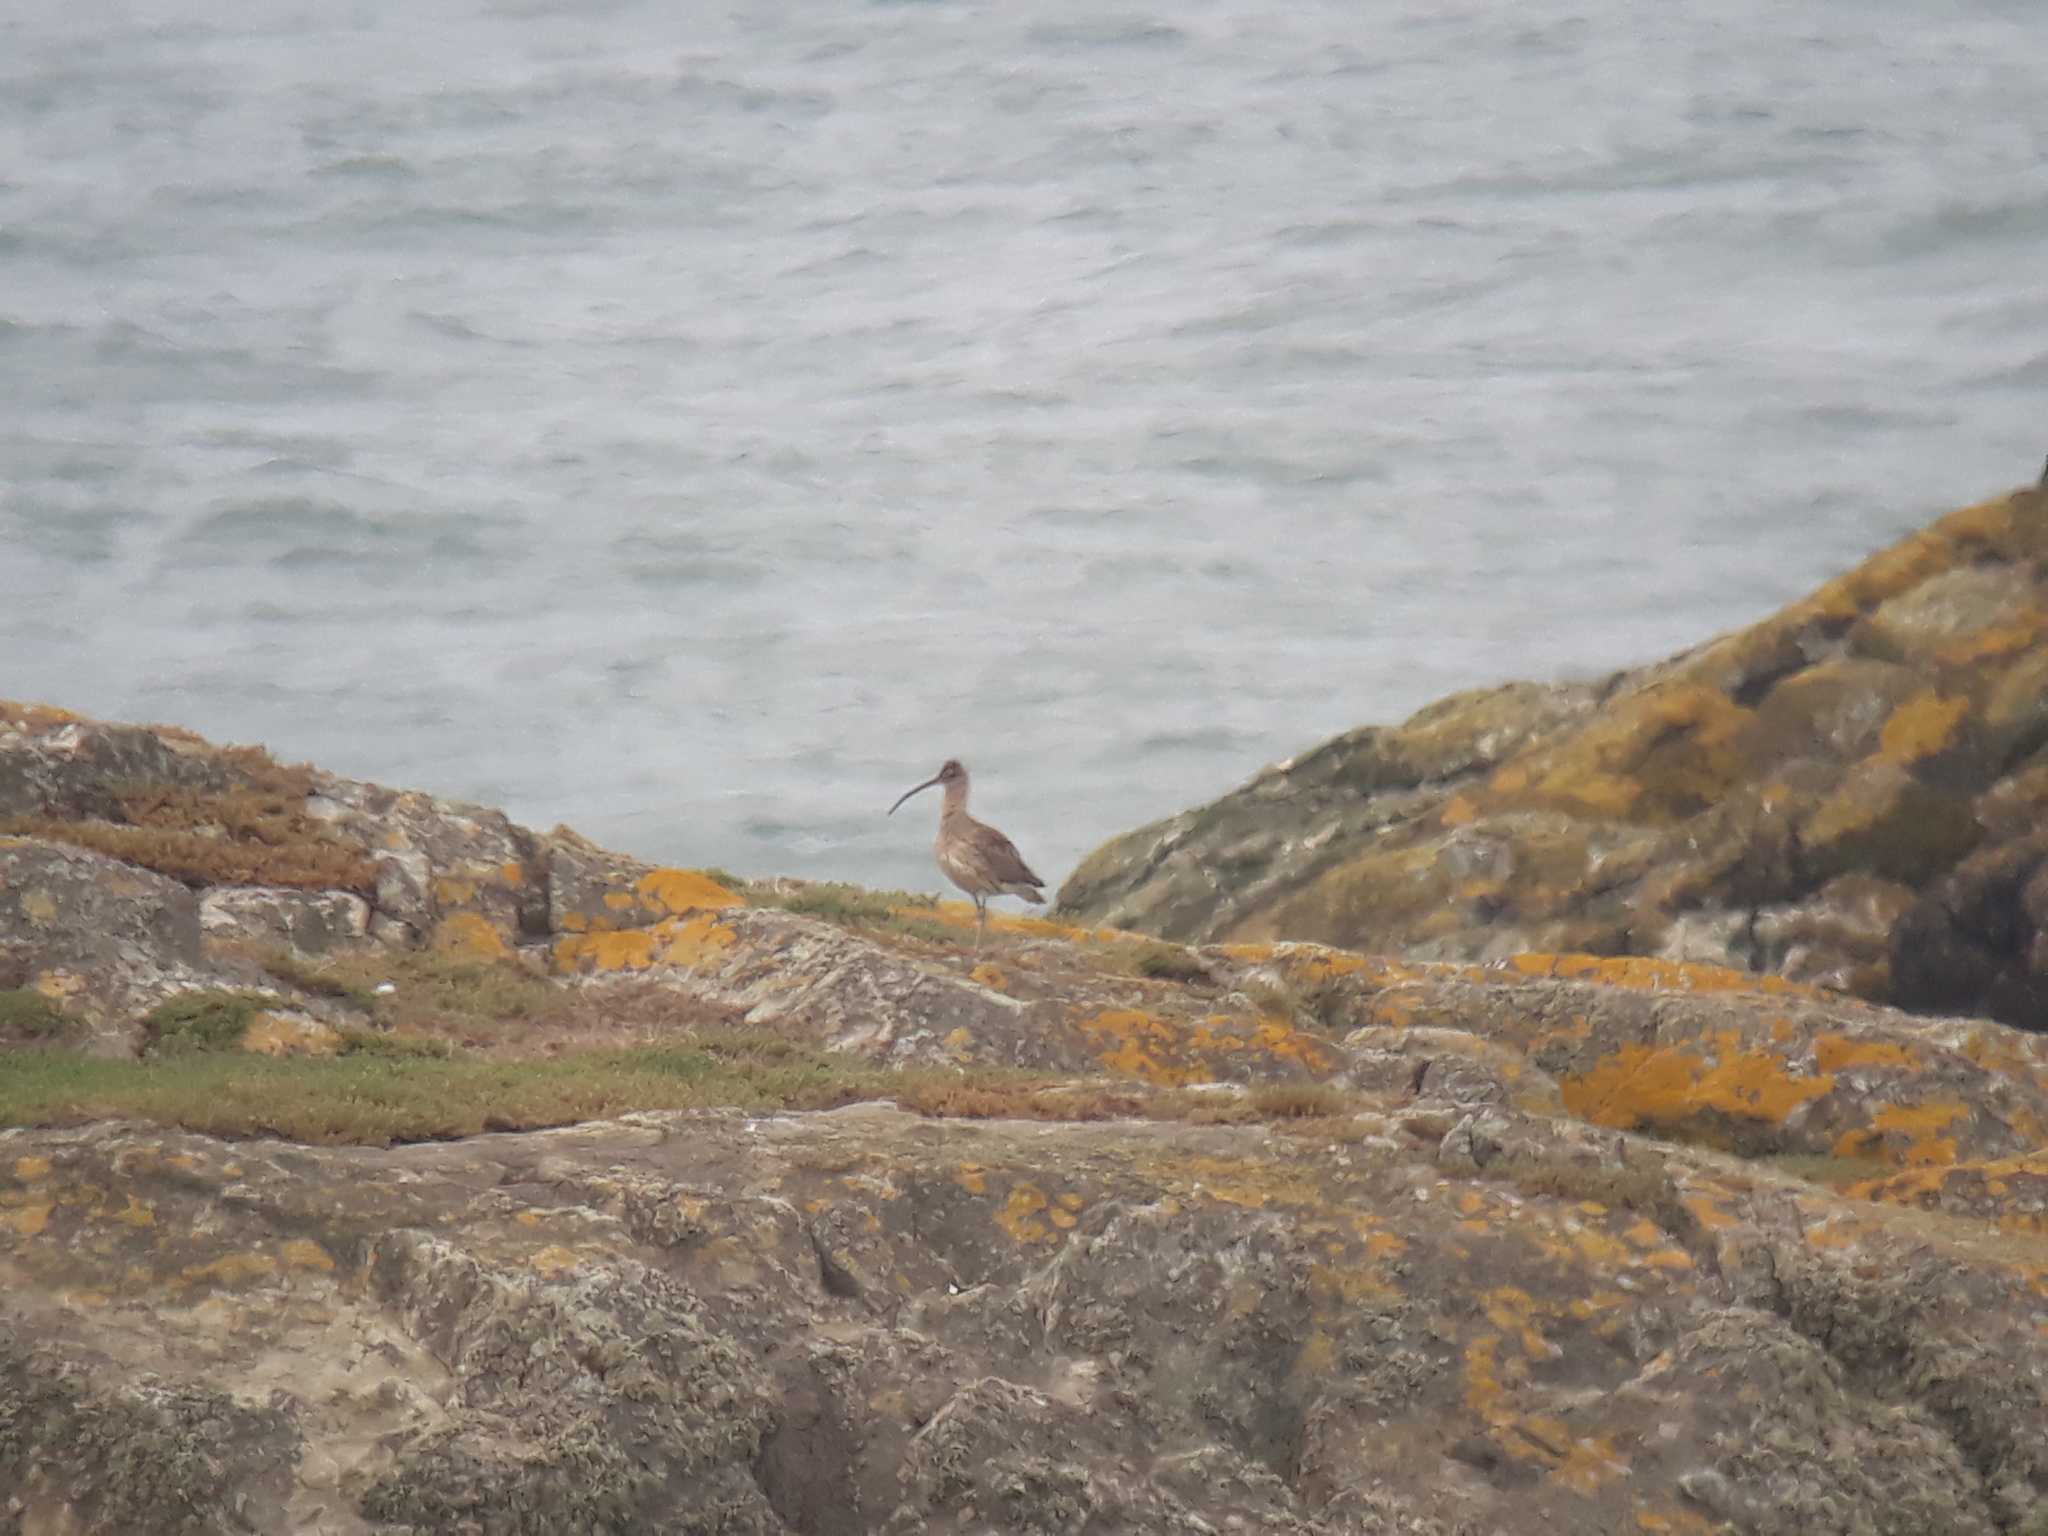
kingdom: Animalia
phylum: Chordata
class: Aves
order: Charadriiformes
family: Scolopacidae
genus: Numenius
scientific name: Numenius arquata
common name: Eurasian curlew
